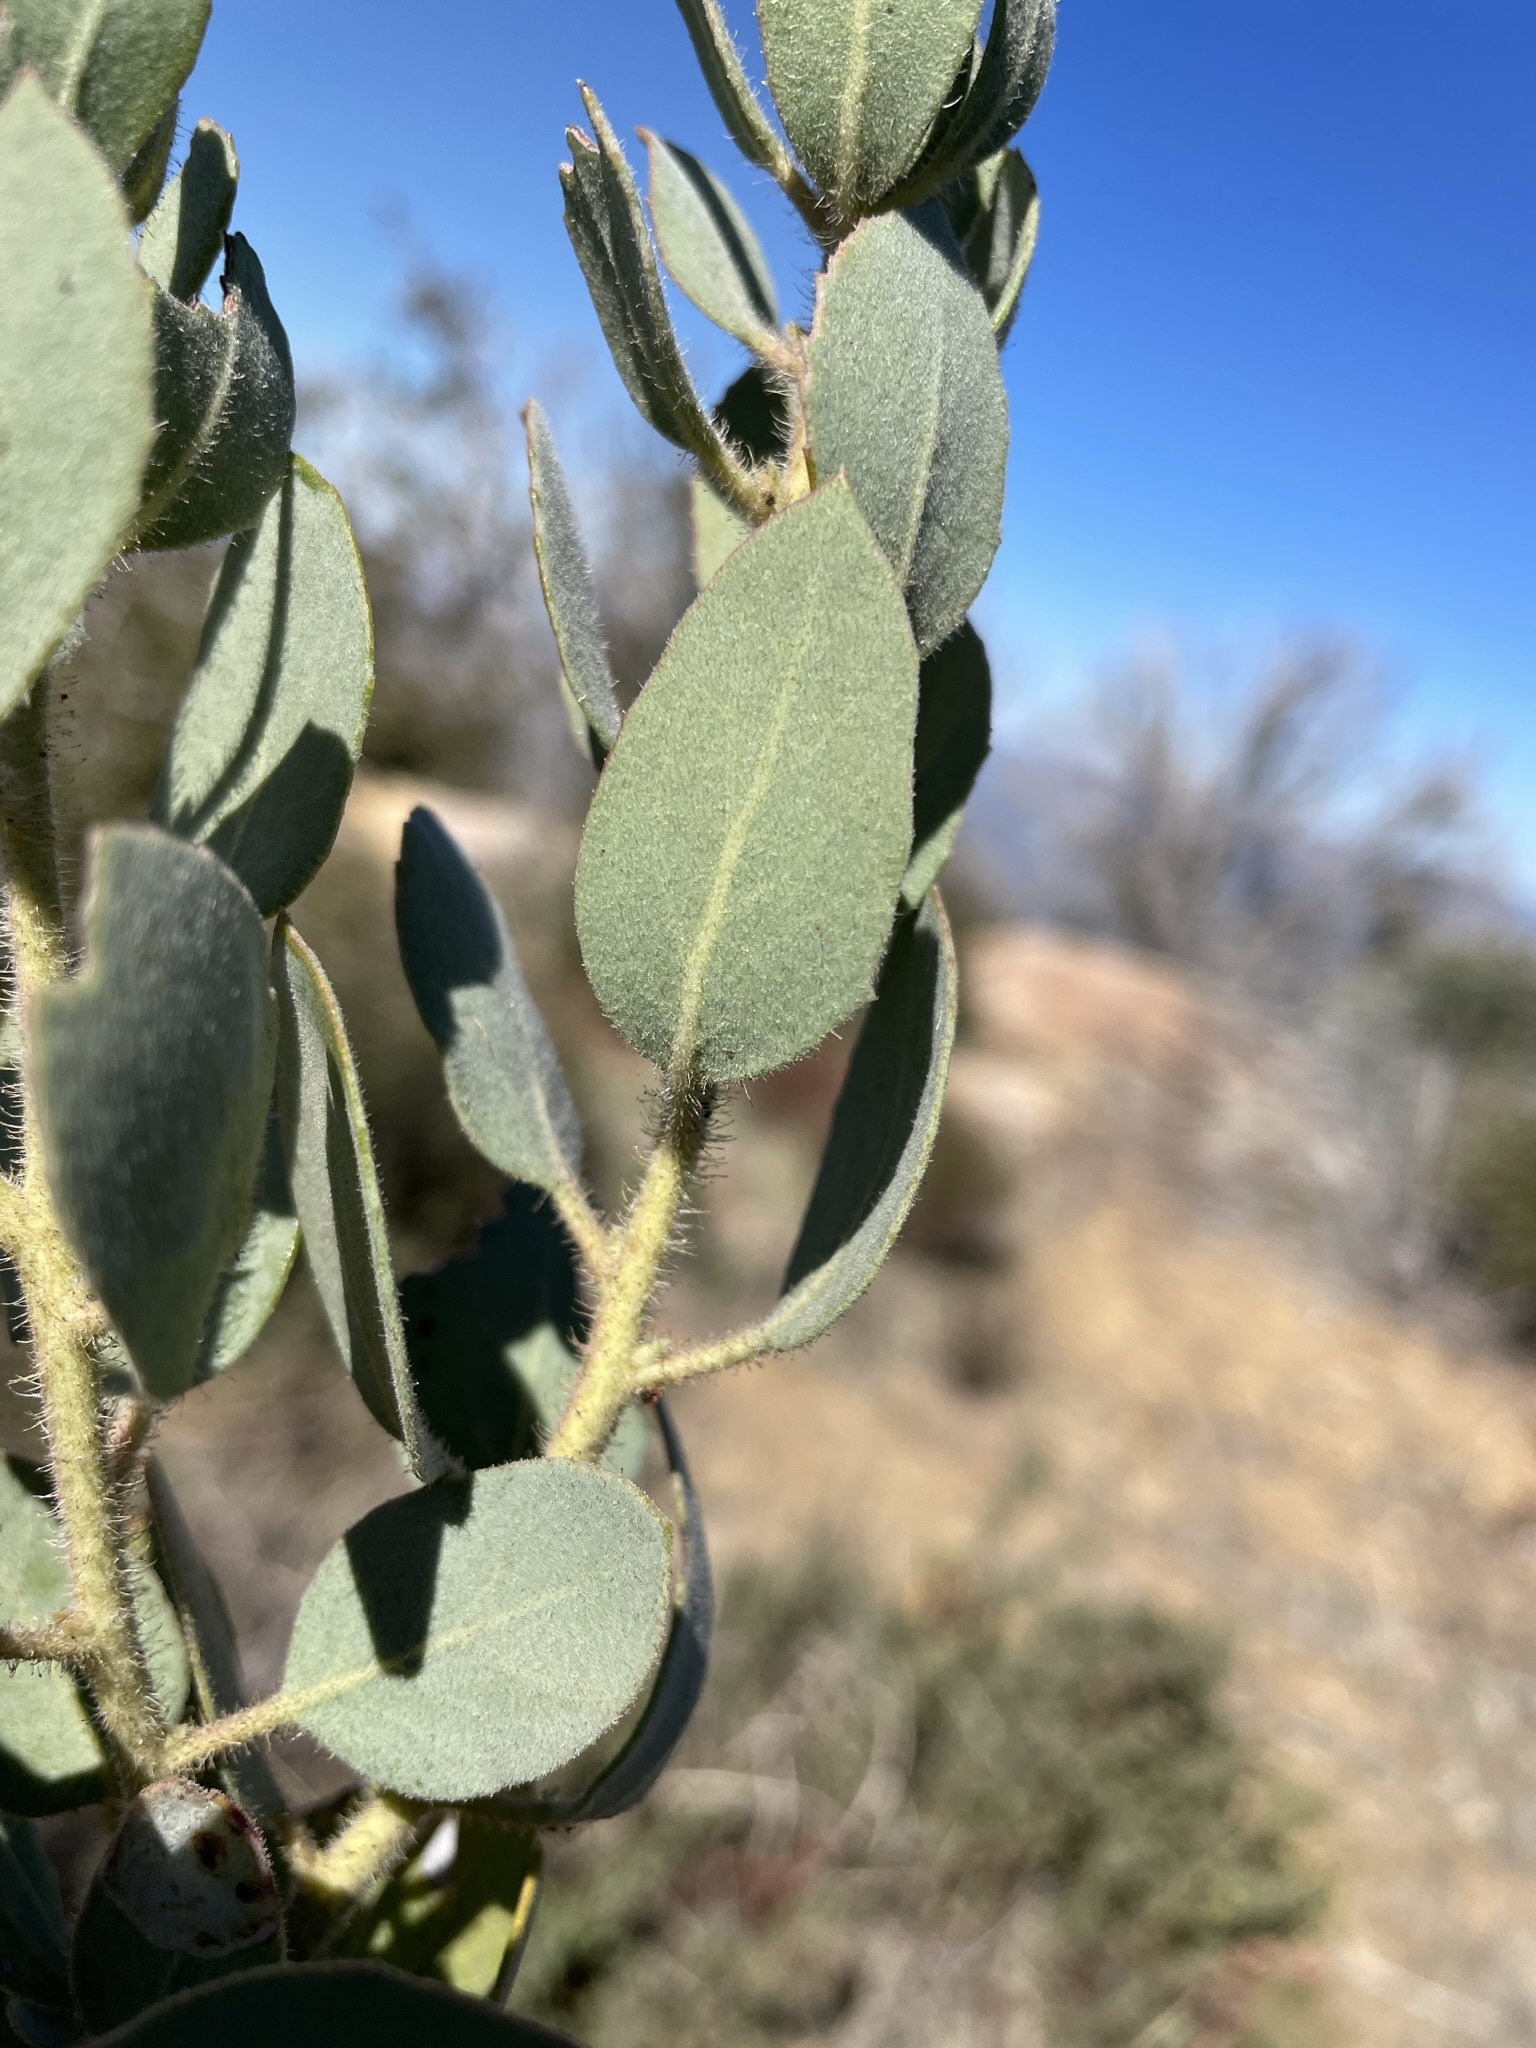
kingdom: Plantae
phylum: Tracheophyta
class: Magnoliopsida
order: Ericales
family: Ericaceae
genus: Arctostaphylos
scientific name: Arctostaphylos glandulosa
